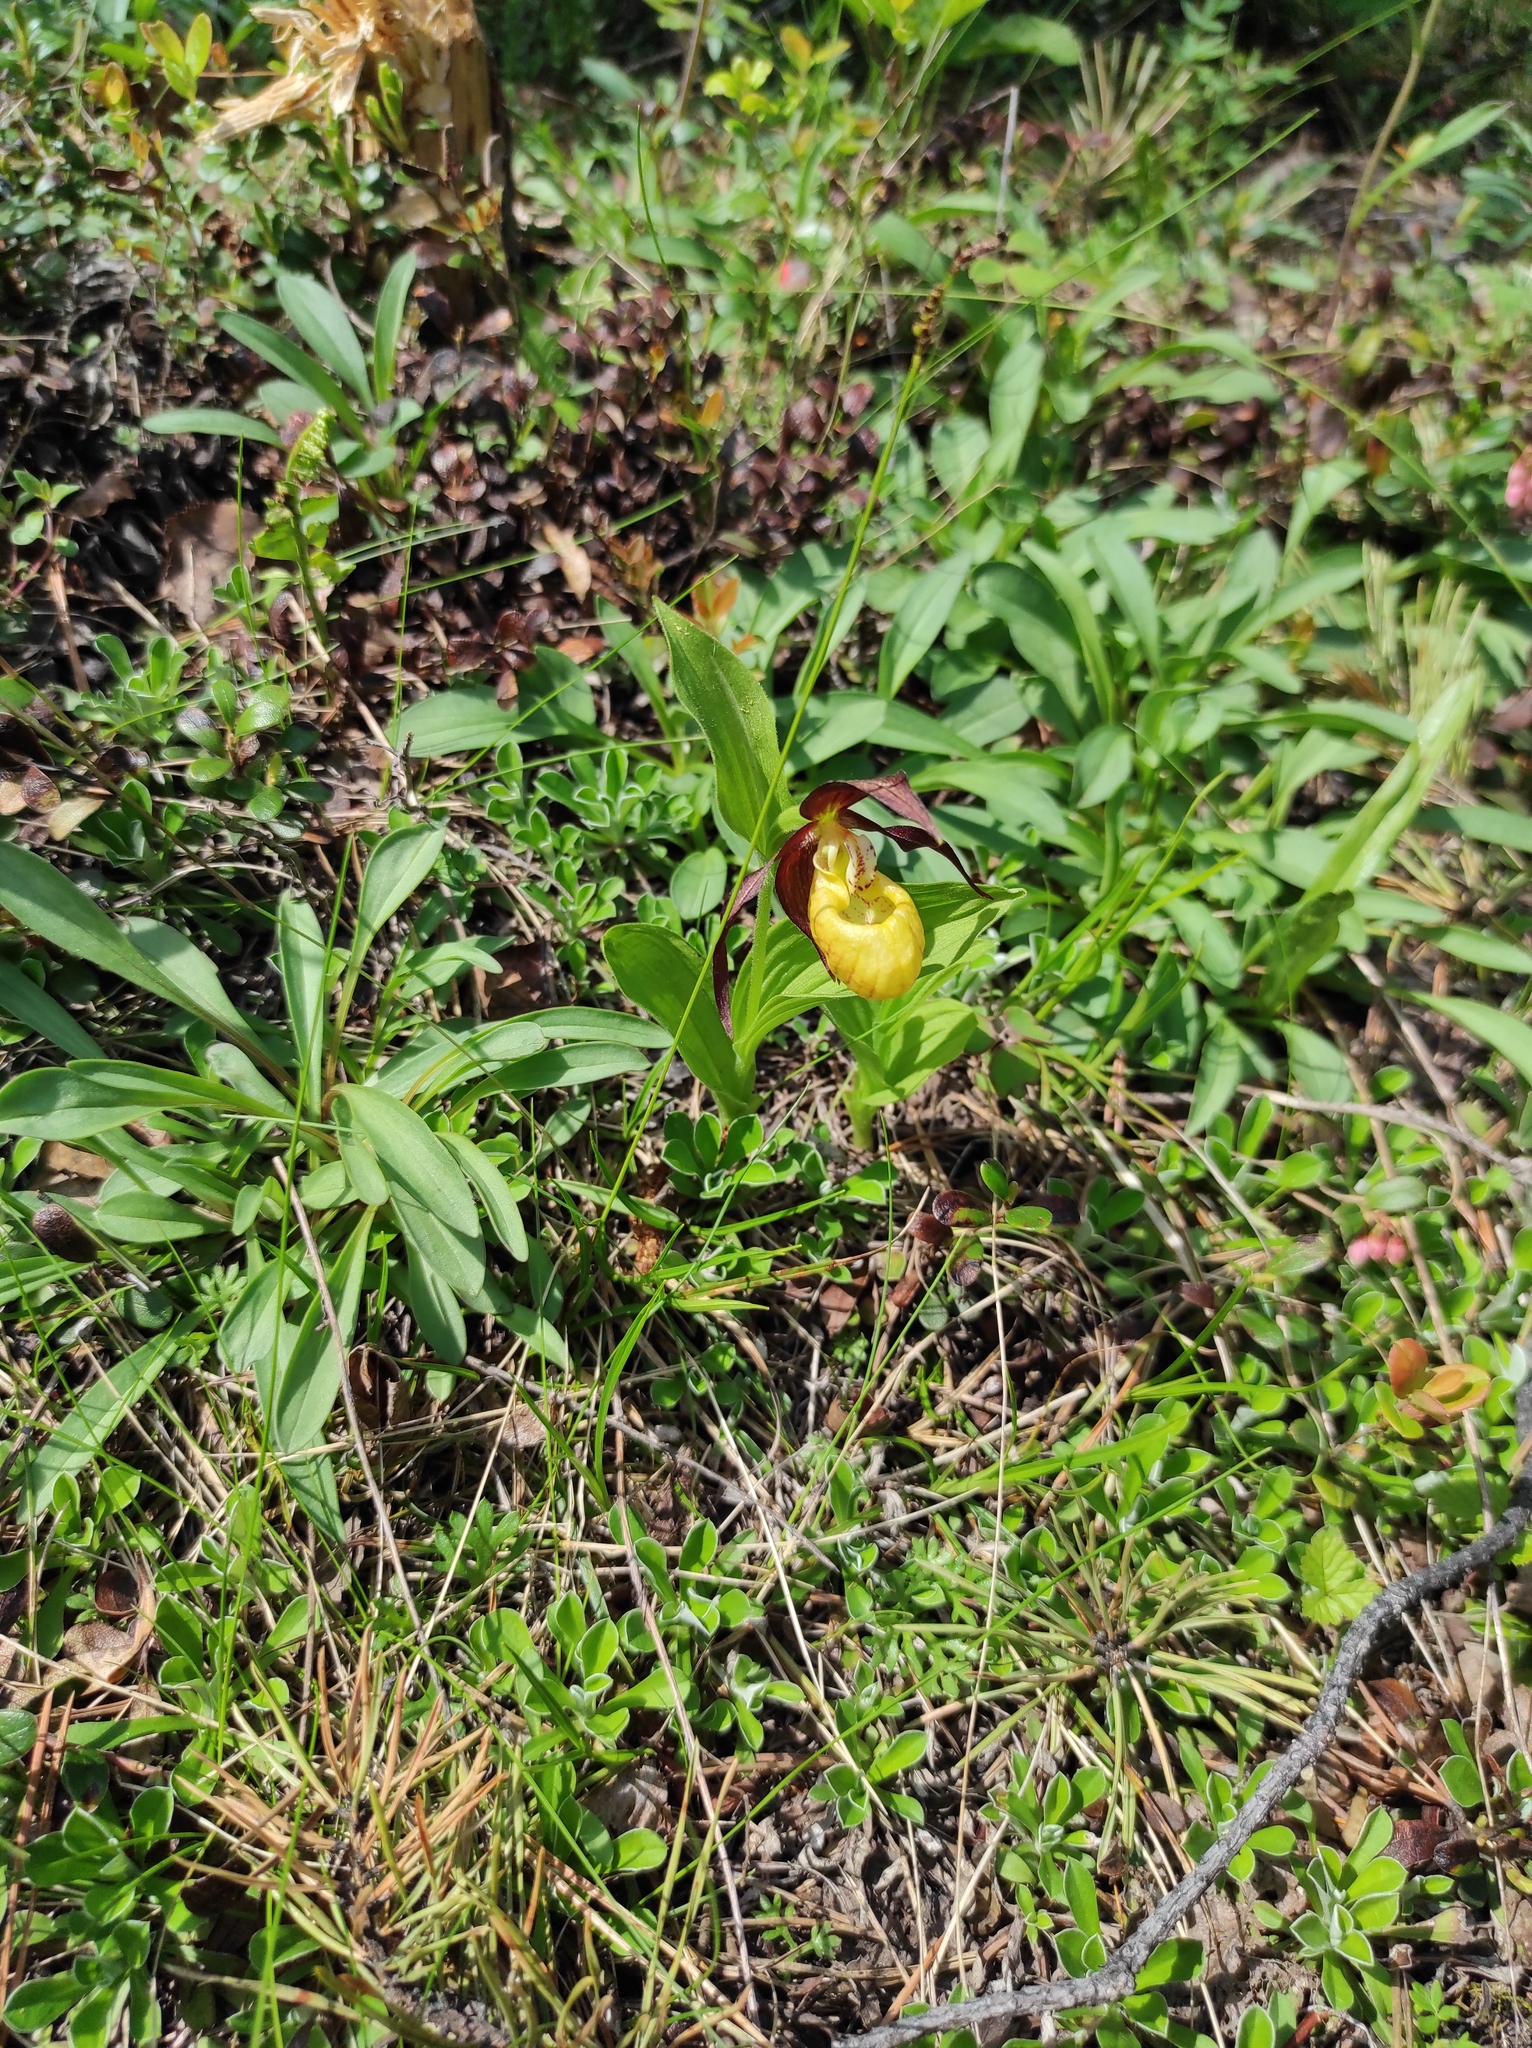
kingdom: Plantae
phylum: Tracheophyta
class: Liliopsida
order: Asparagales
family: Orchidaceae
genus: Cypripedium
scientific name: Cypripedium calceolus
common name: Lady's-slipper
